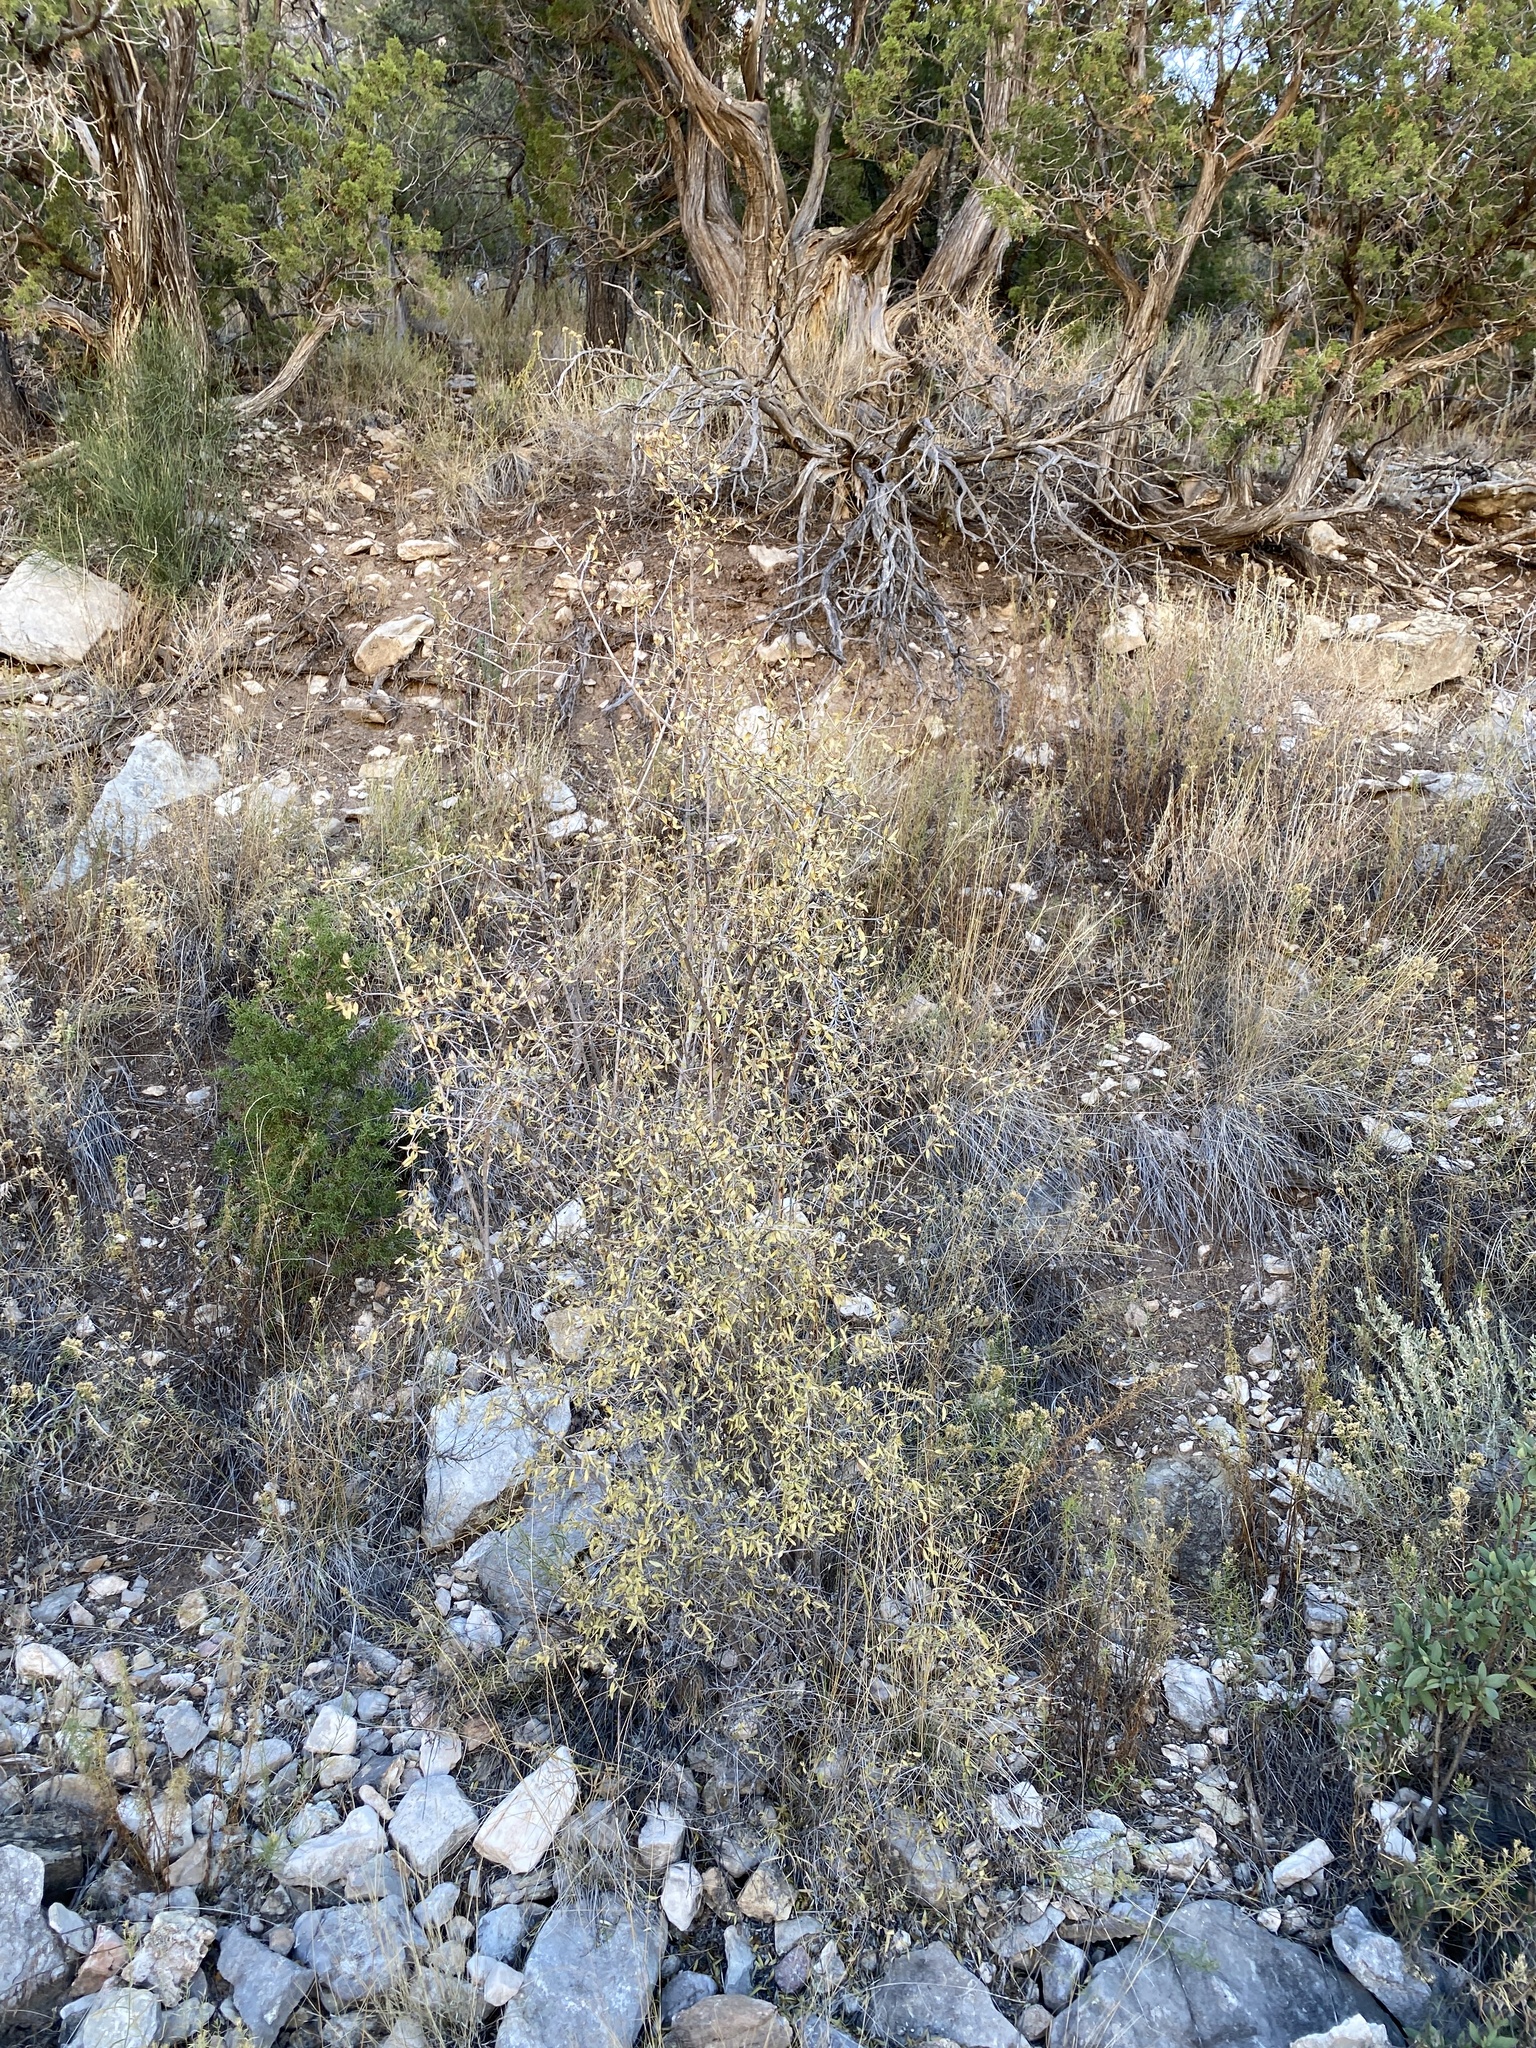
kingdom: Plantae
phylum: Tracheophyta
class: Magnoliopsida
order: Cornales
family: Hydrangeaceae
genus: Fendlera
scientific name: Fendlera rupicola
